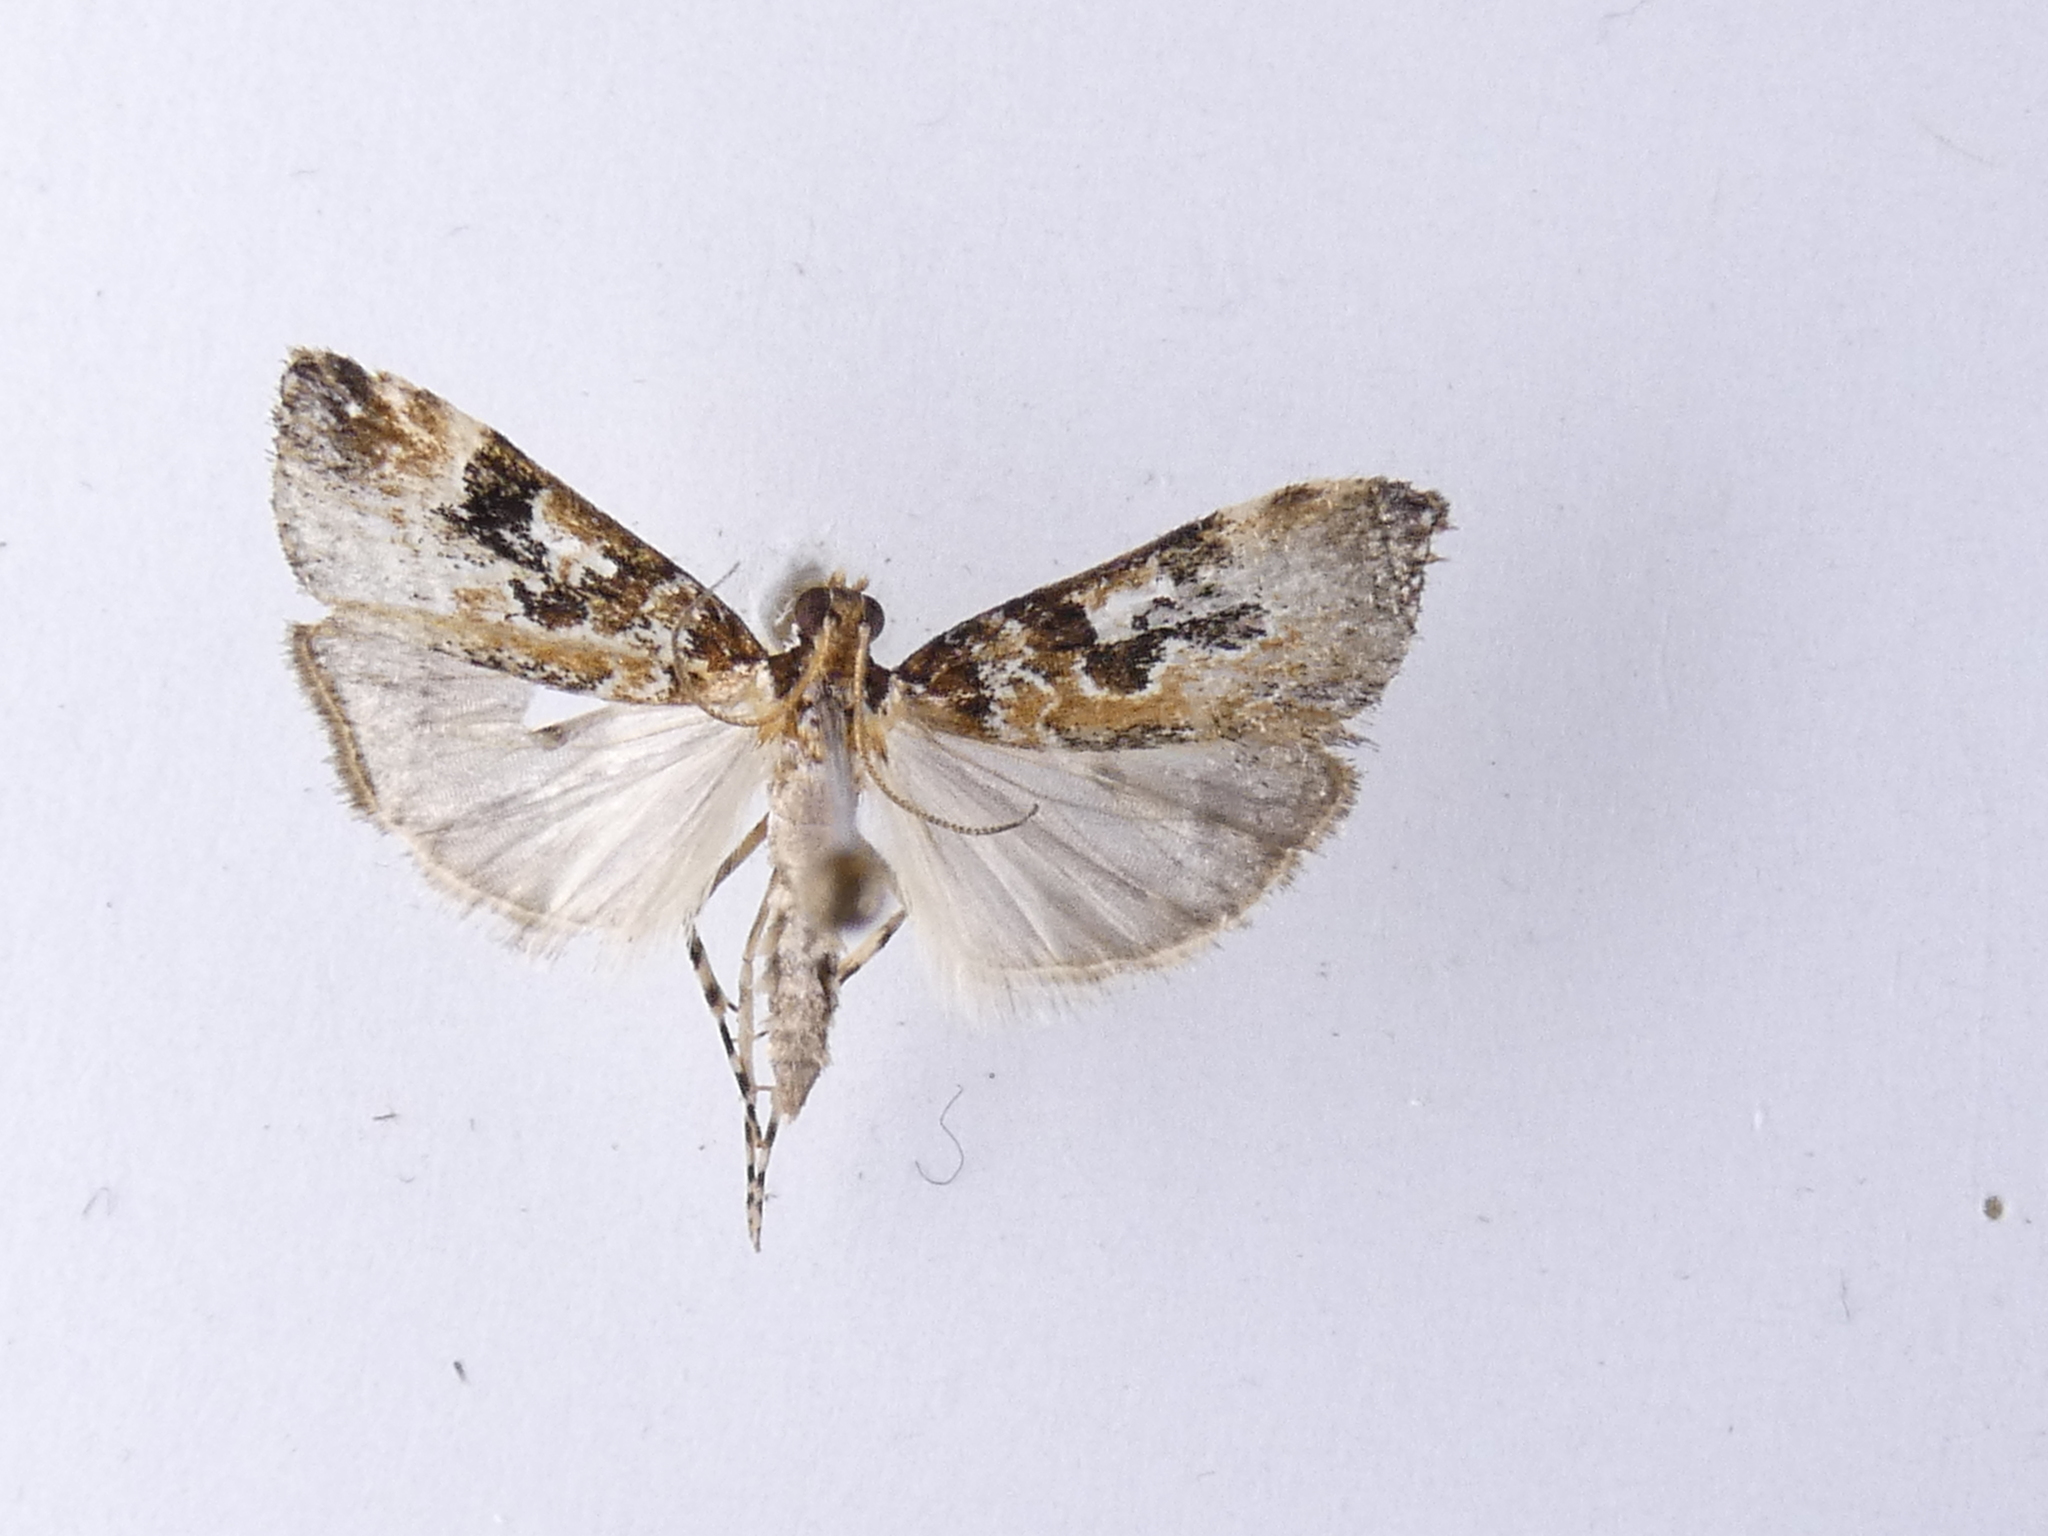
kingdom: Animalia
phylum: Arthropoda
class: Insecta
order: Lepidoptera
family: Crambidae
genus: Scoparia
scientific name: Scoparia ustimacula
